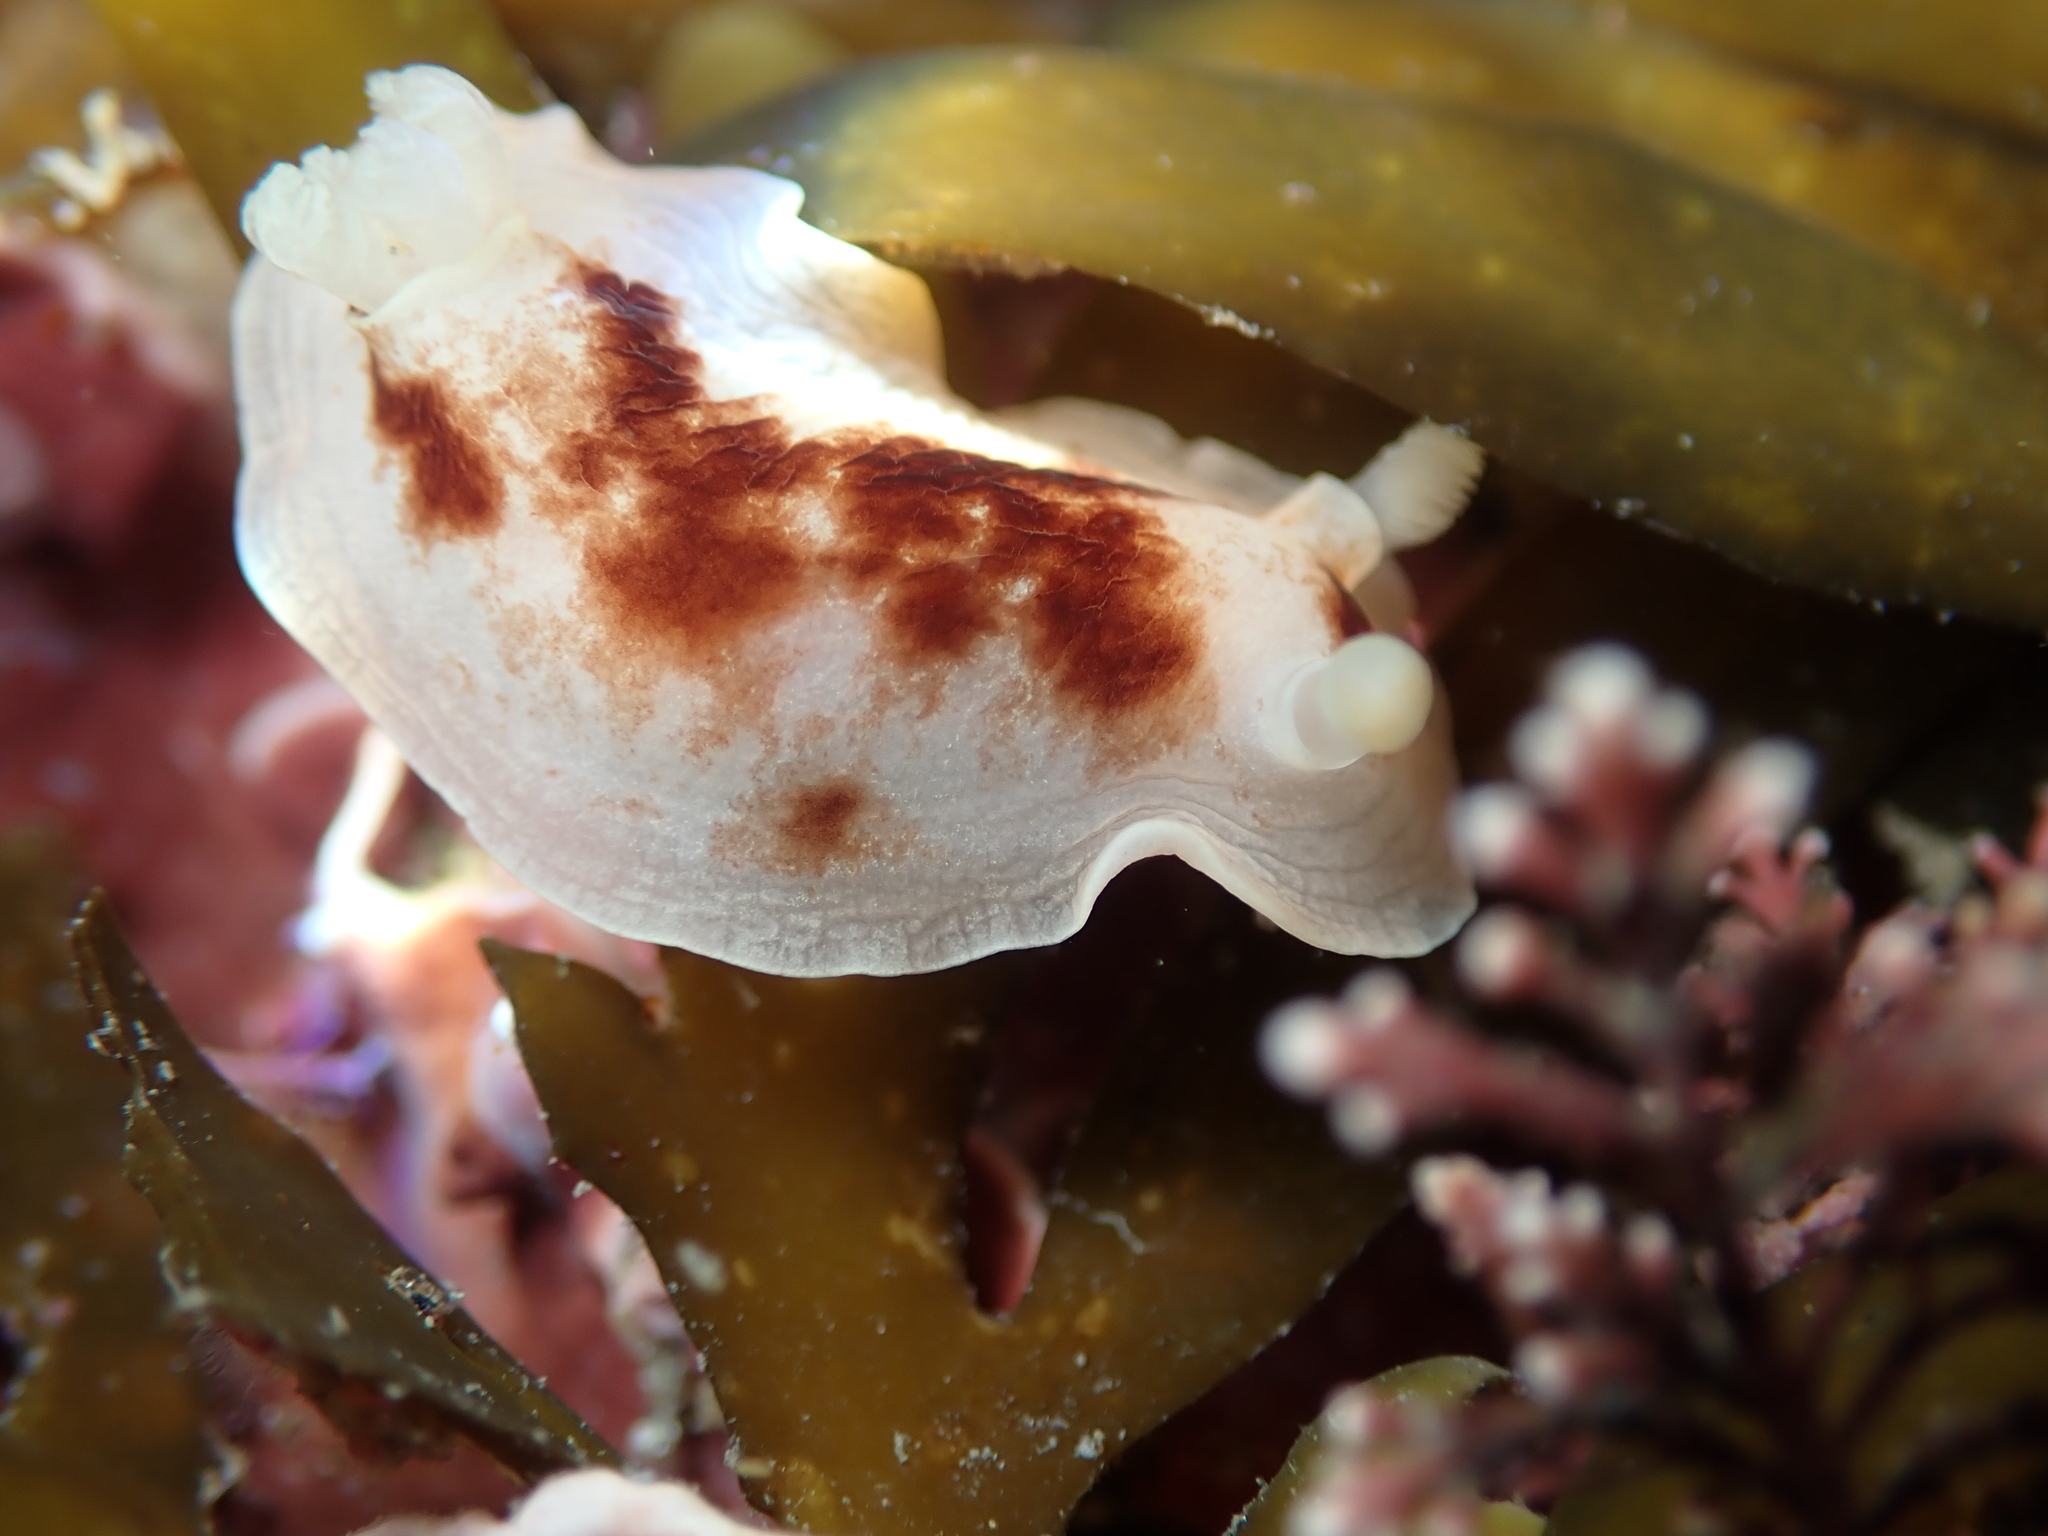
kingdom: Animalia
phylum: Mollusca
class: Gastropoda
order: Nudibranchia
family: Dorididae
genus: Aphelodoris
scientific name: Aphelodoris luctuosa
